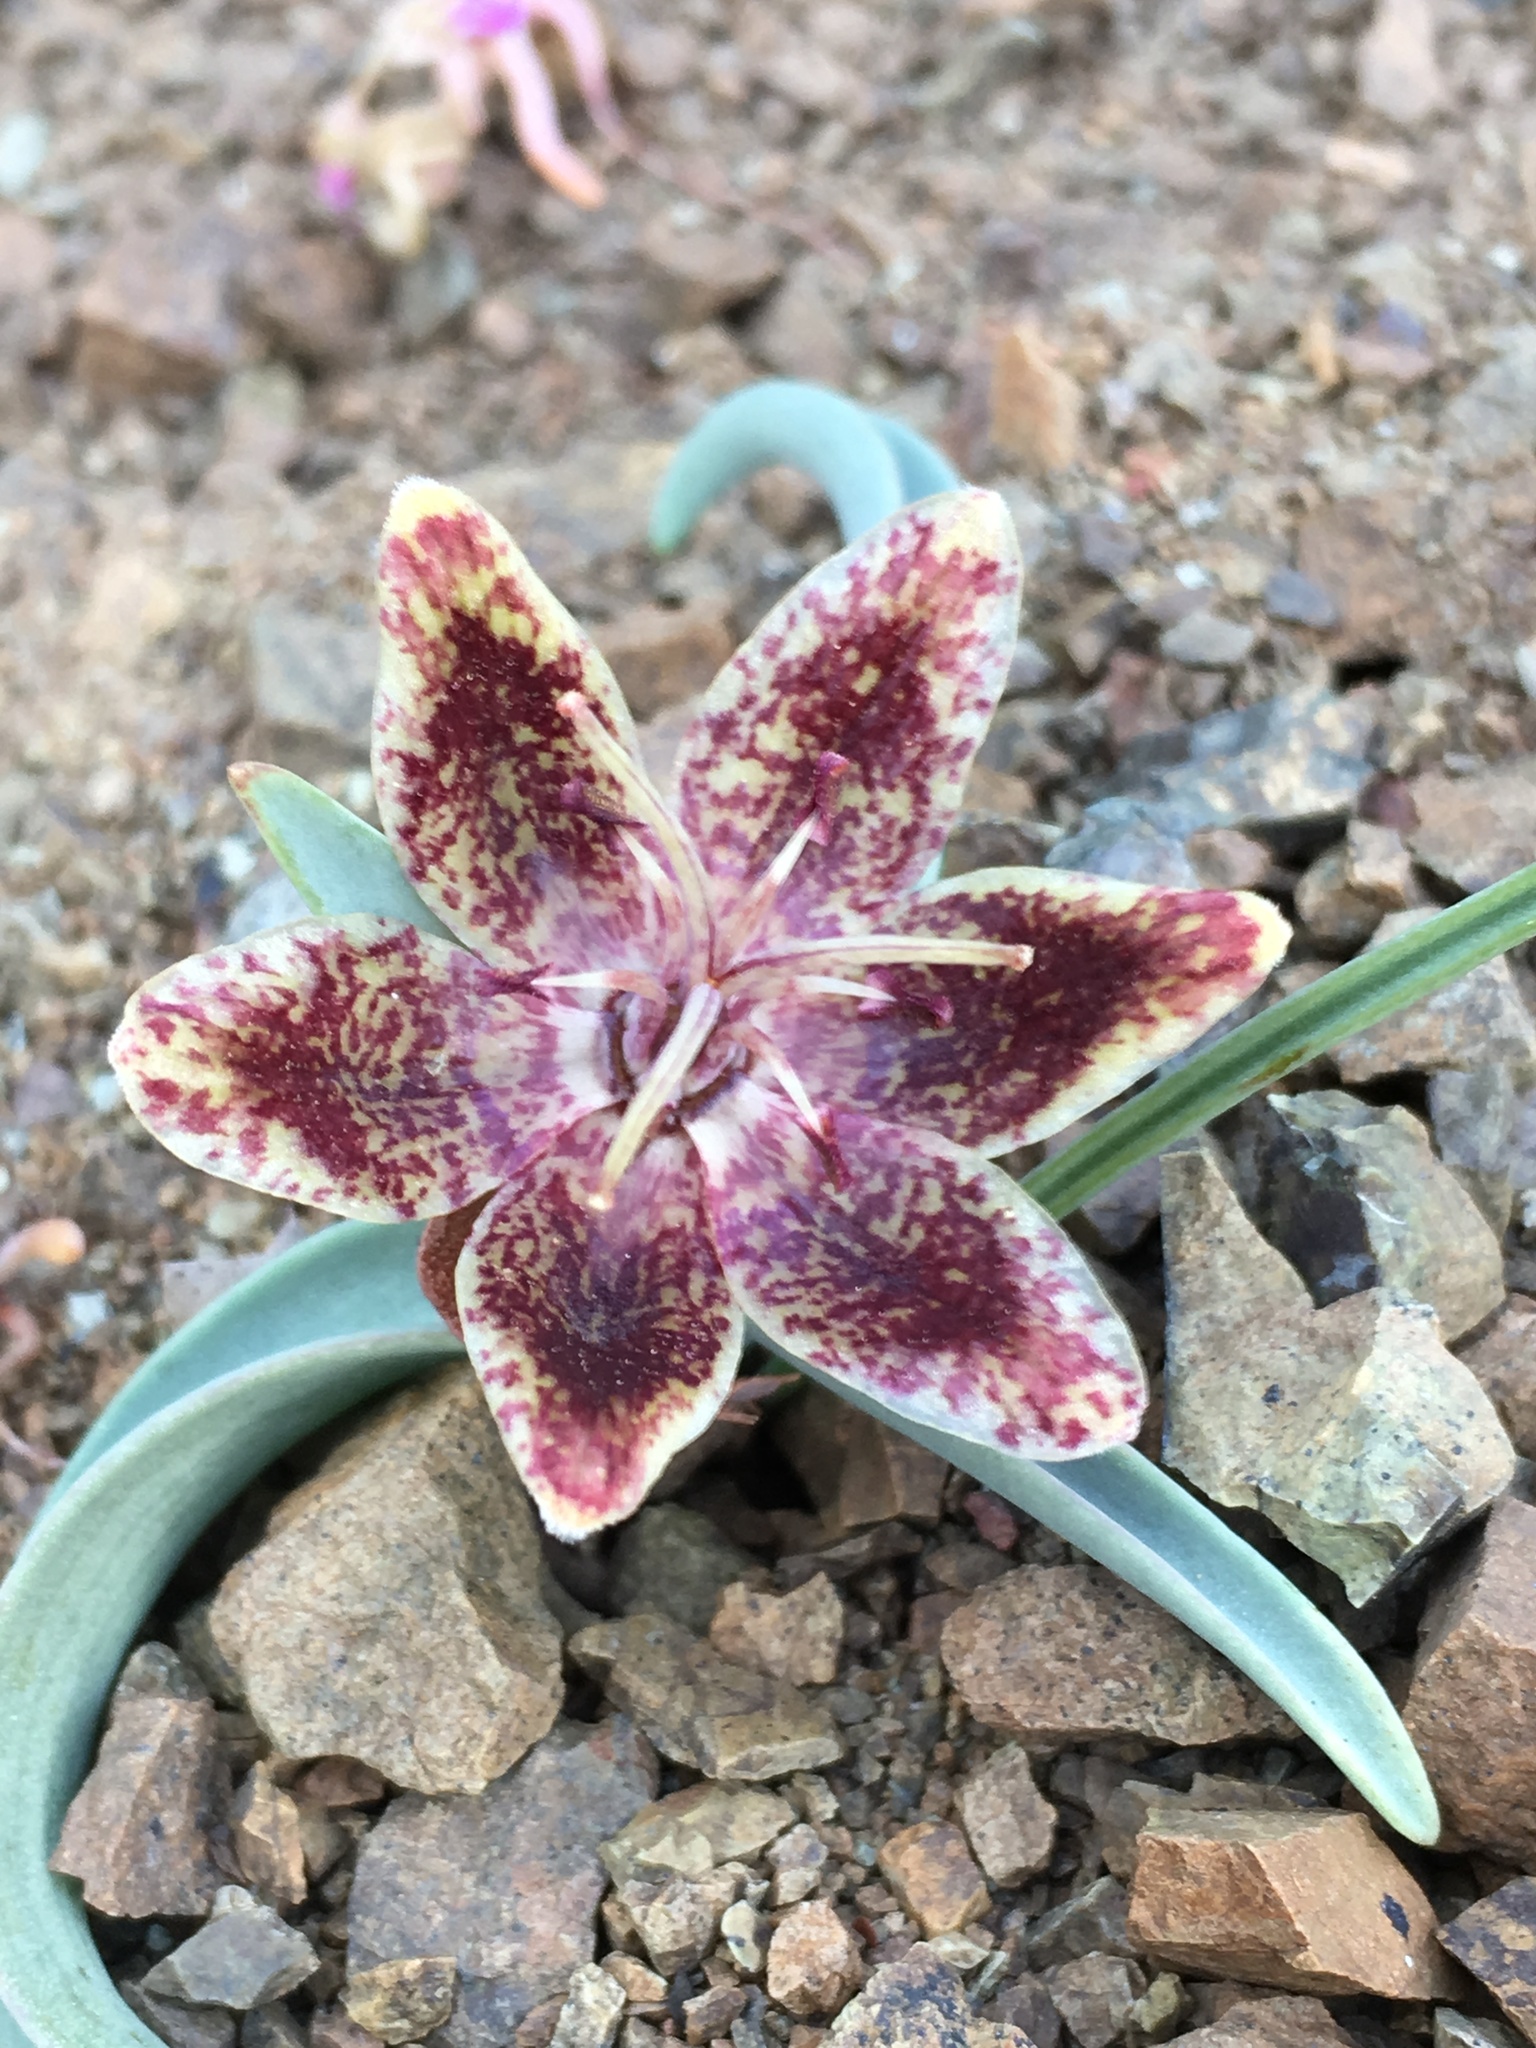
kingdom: Plantae
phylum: Tracheophyta
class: Liliopsida
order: Liliales
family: Liliaceae
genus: Fritillaria
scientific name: Fritillaria falcata
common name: Talus fritillary
